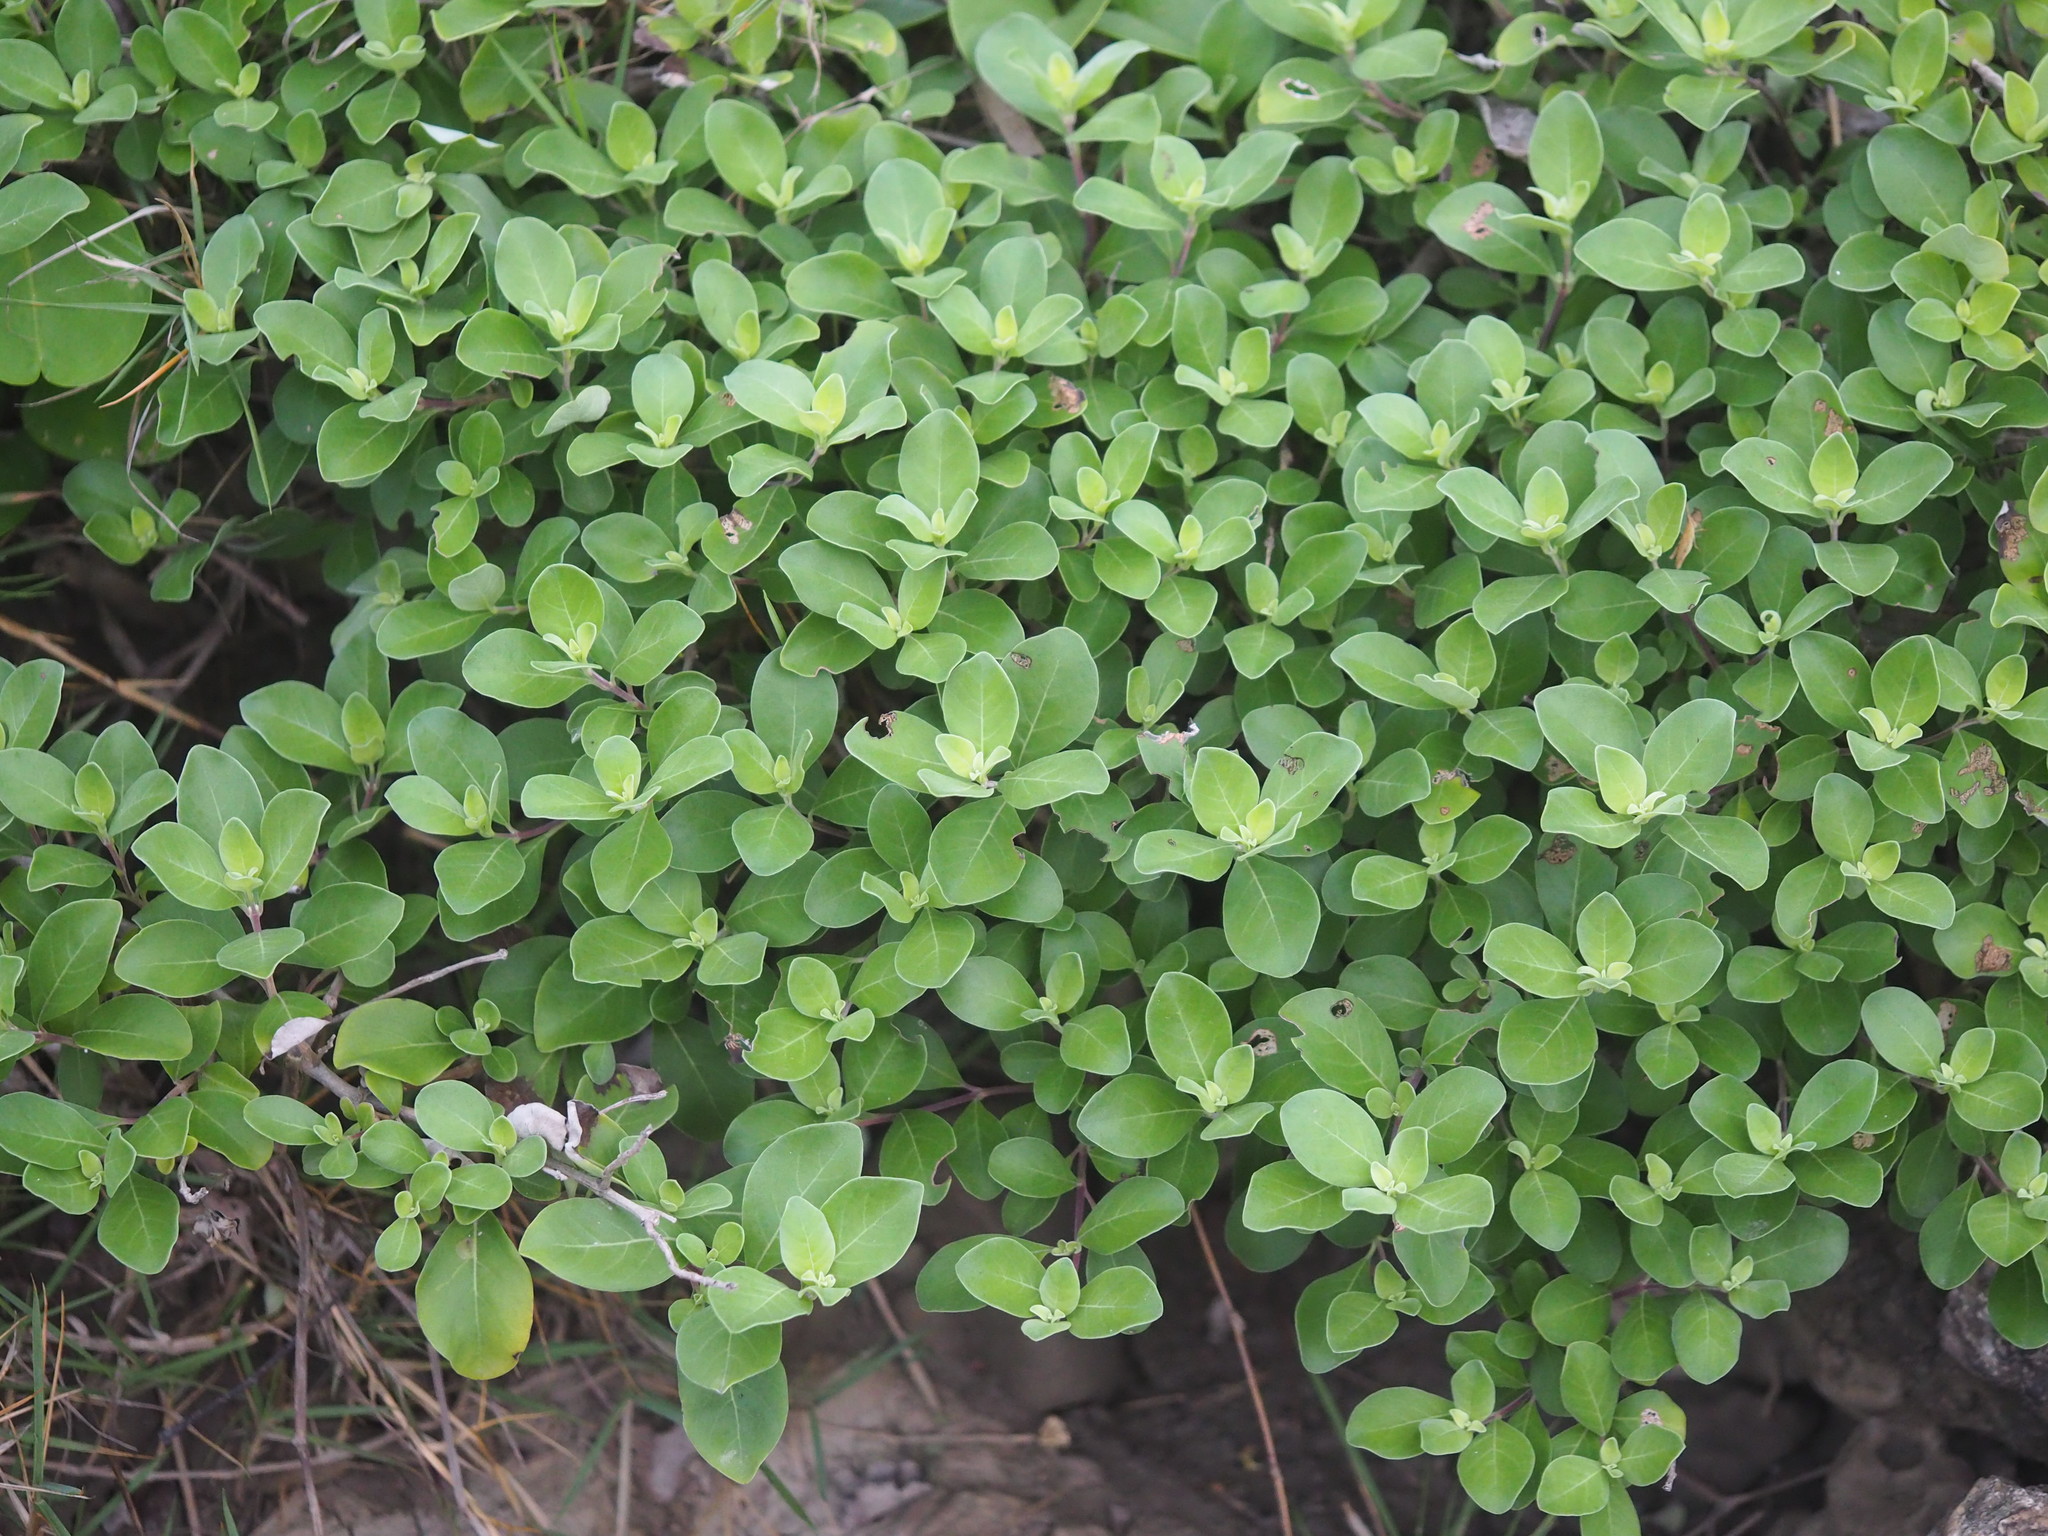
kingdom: Plantae
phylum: Tracheophyta
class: Magnoliopsida
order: Lamiales
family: Lamiaceae
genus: Vitex
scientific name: Vitex rotundifolia
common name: Beach vitex
